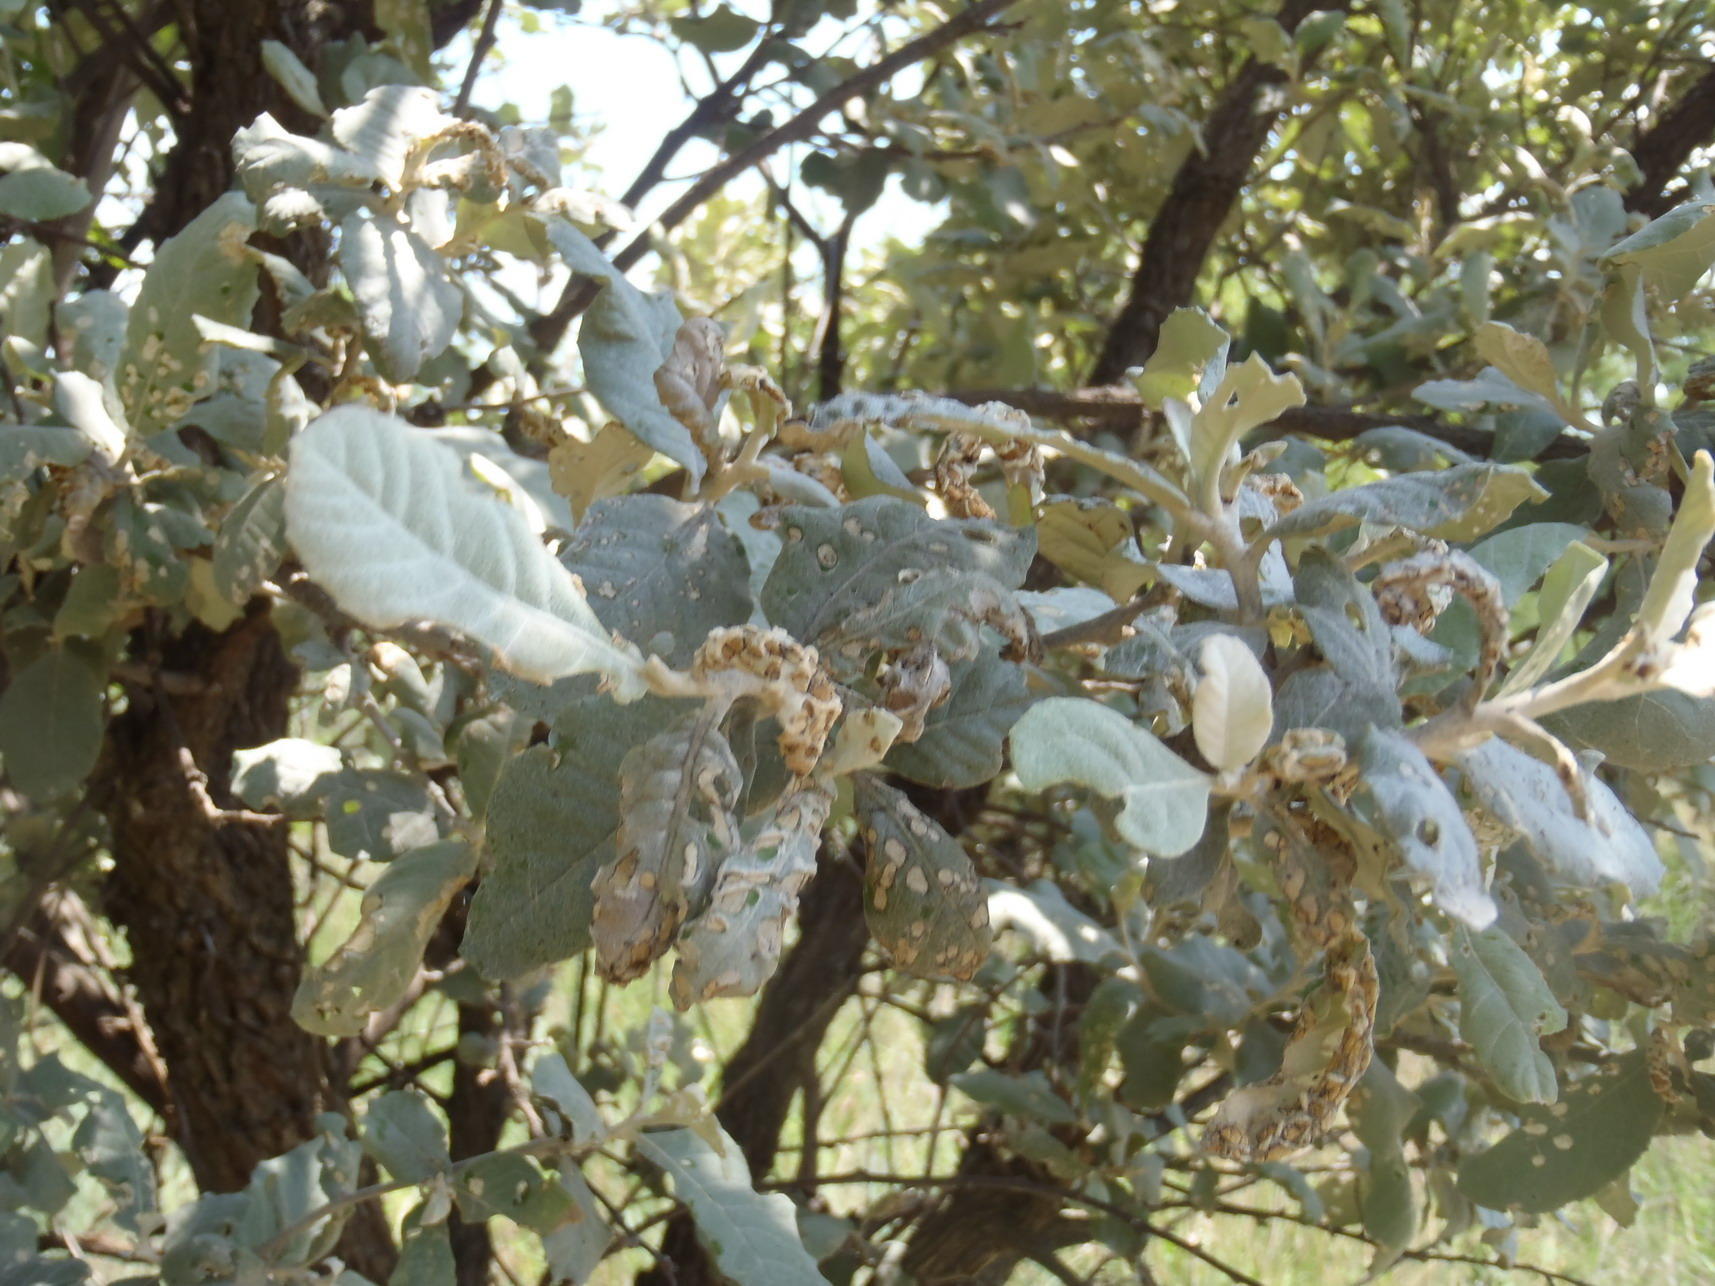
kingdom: Plantae
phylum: Tracheophyta
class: Magnoliopsida
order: Asterales
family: Asteraceae
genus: Brachylaena
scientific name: Brachylaena discolor
